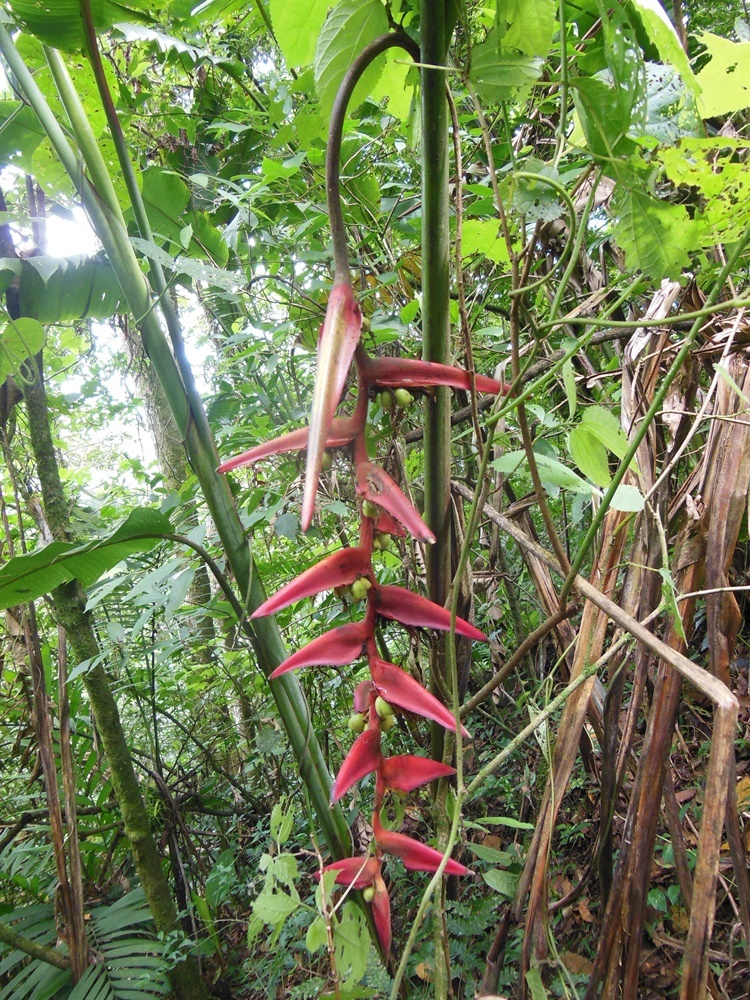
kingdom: Plantae
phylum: Tracheophyta
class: Liliopsida
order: Zingiberales
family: Heliconiaceae
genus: Heliconia
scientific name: Heliconia collinsiana
